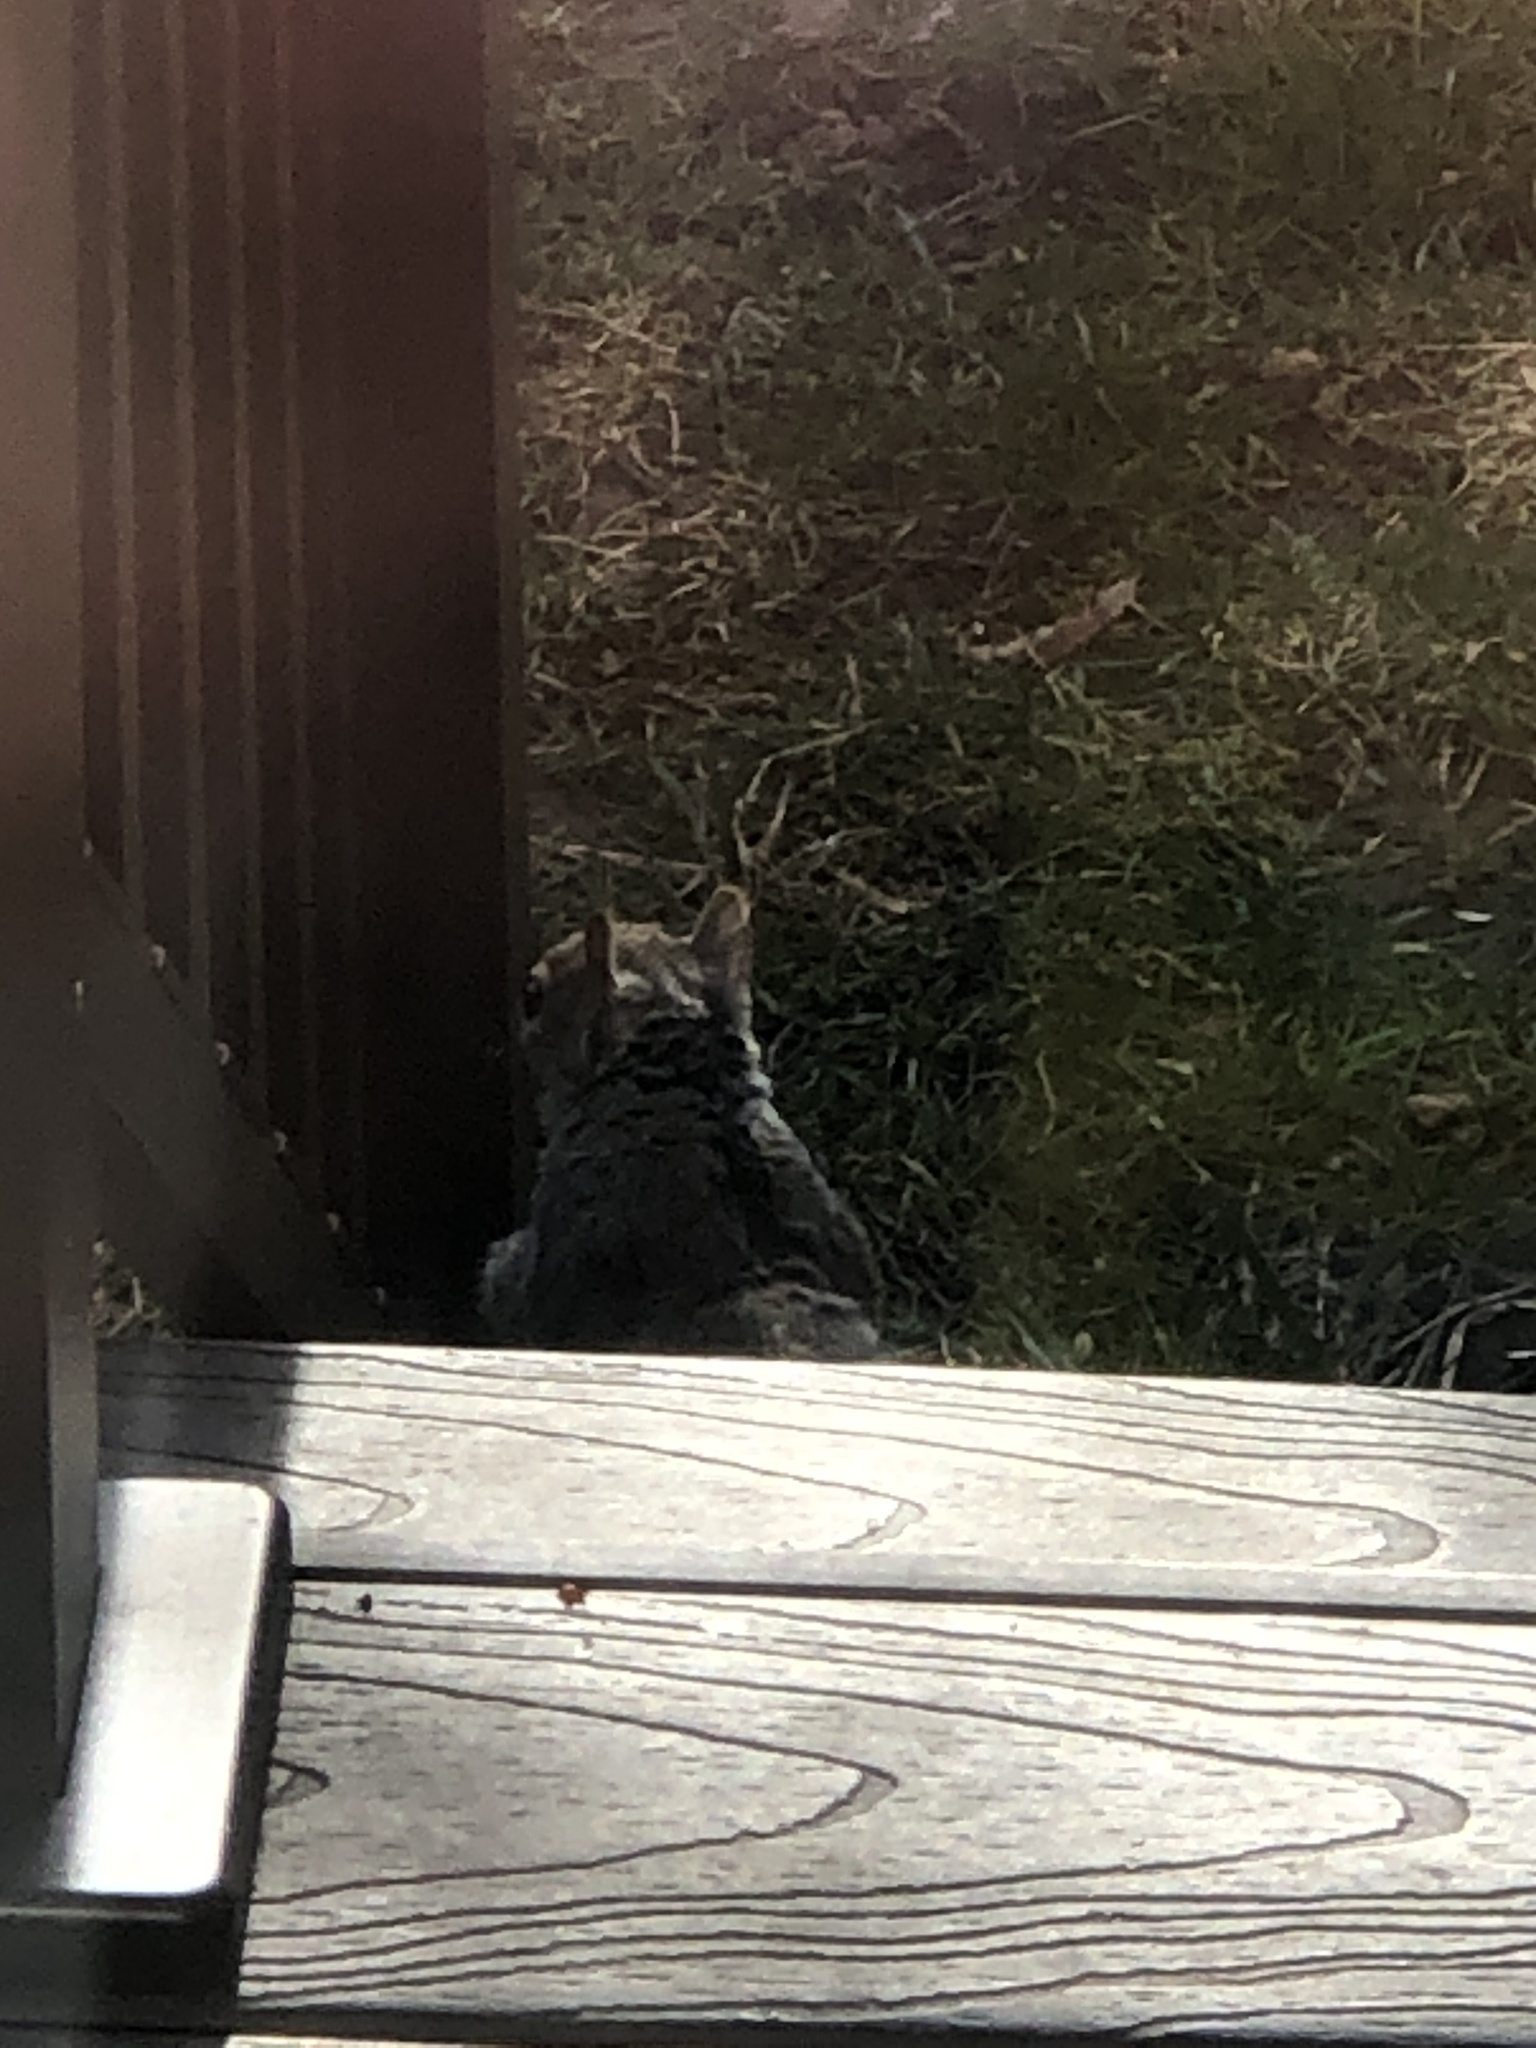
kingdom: Animalia
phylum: Chordata
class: Mammalia
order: Rodentia
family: Sciuridae
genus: Sciurus
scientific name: Sciurus carolinensis
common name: Eastern gray squirrel
